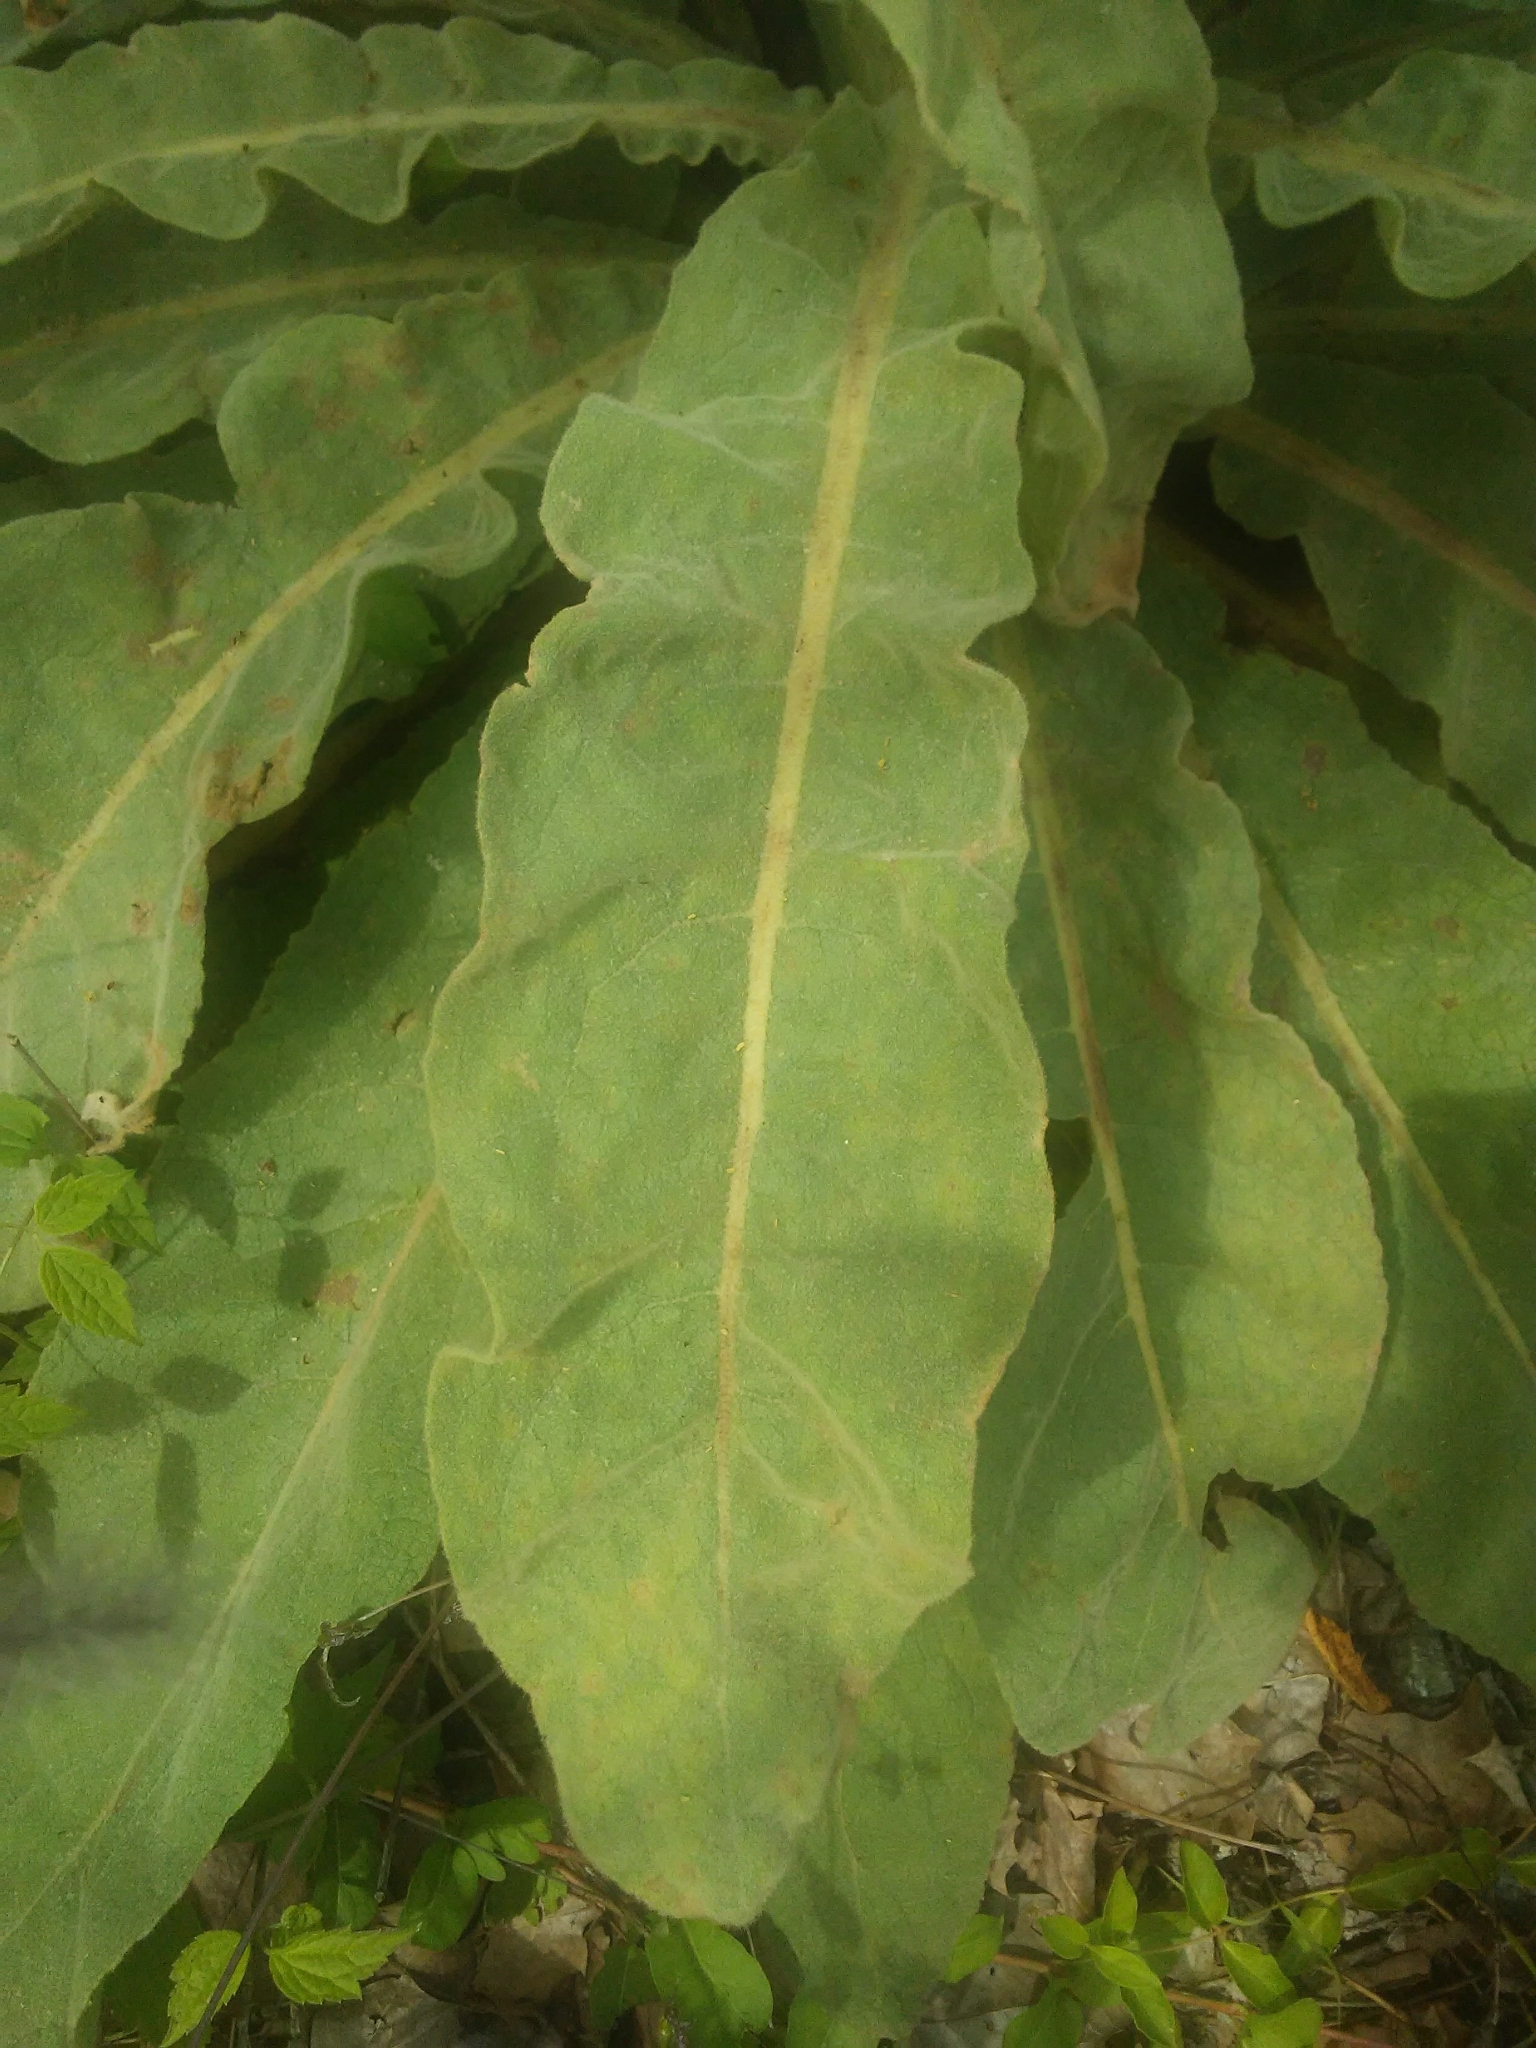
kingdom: Plantae
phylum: Tracheophyta
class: Magnoliopsida
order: Lamiales
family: Scrophulariaceae
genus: Verbascum
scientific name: Verbascum thapsus
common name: Common mullein
